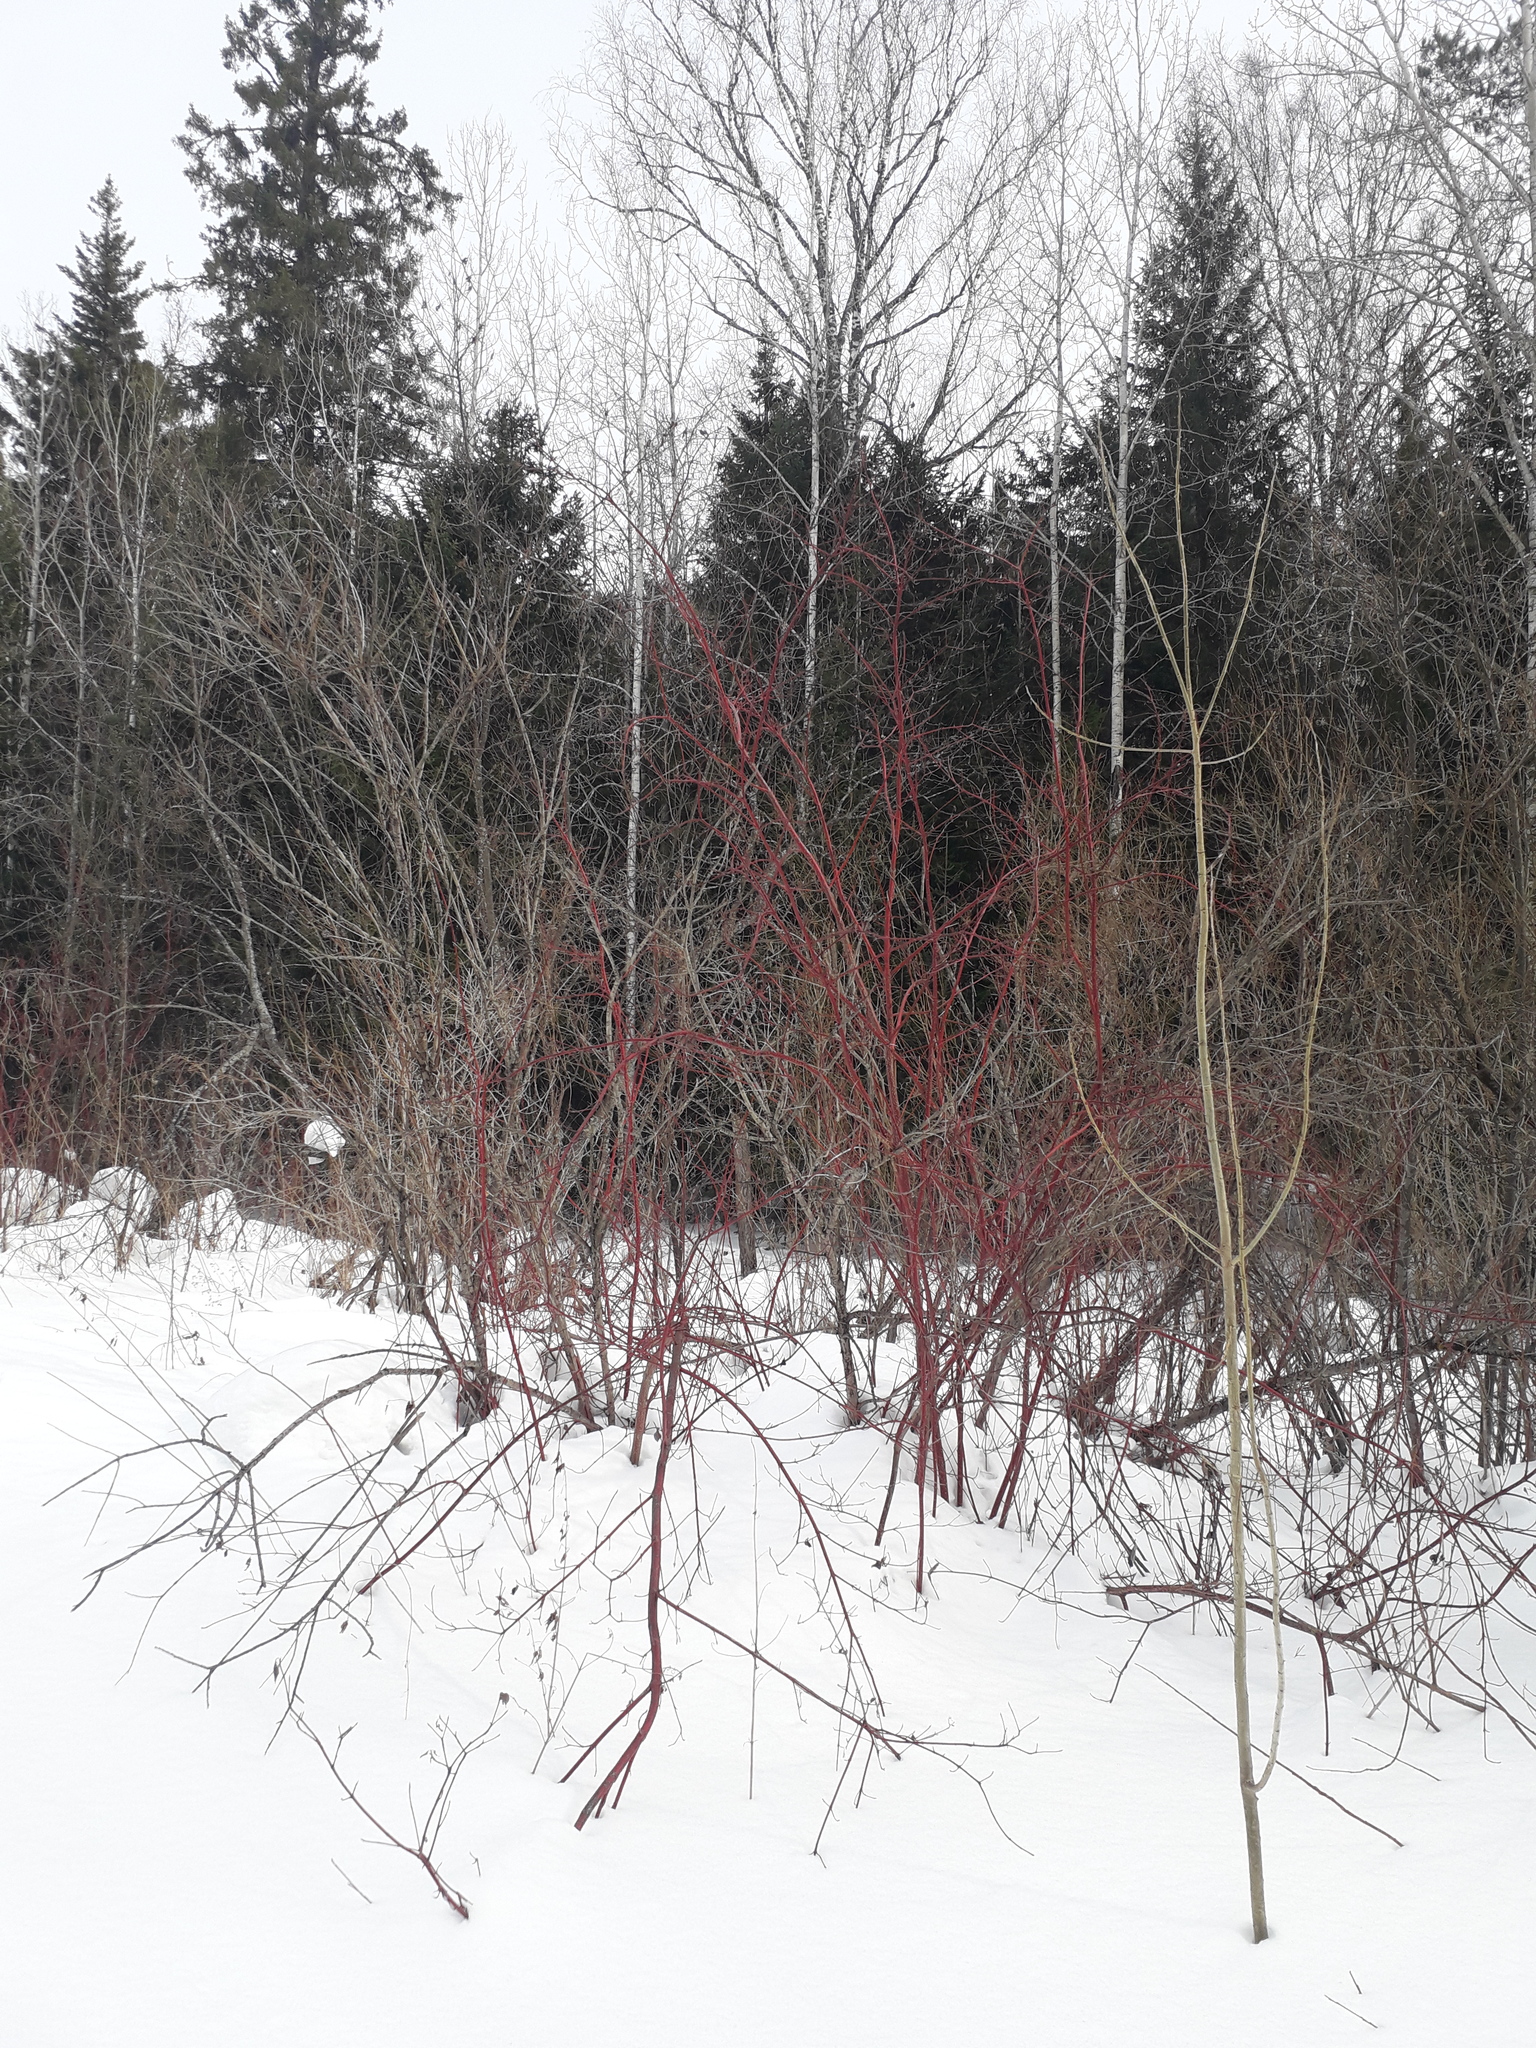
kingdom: Plantae
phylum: Tracheophyta
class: Magnoliopsida
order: Cornales
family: Cornaceae
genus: Cornus
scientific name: Cornus alba
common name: White dogwood
